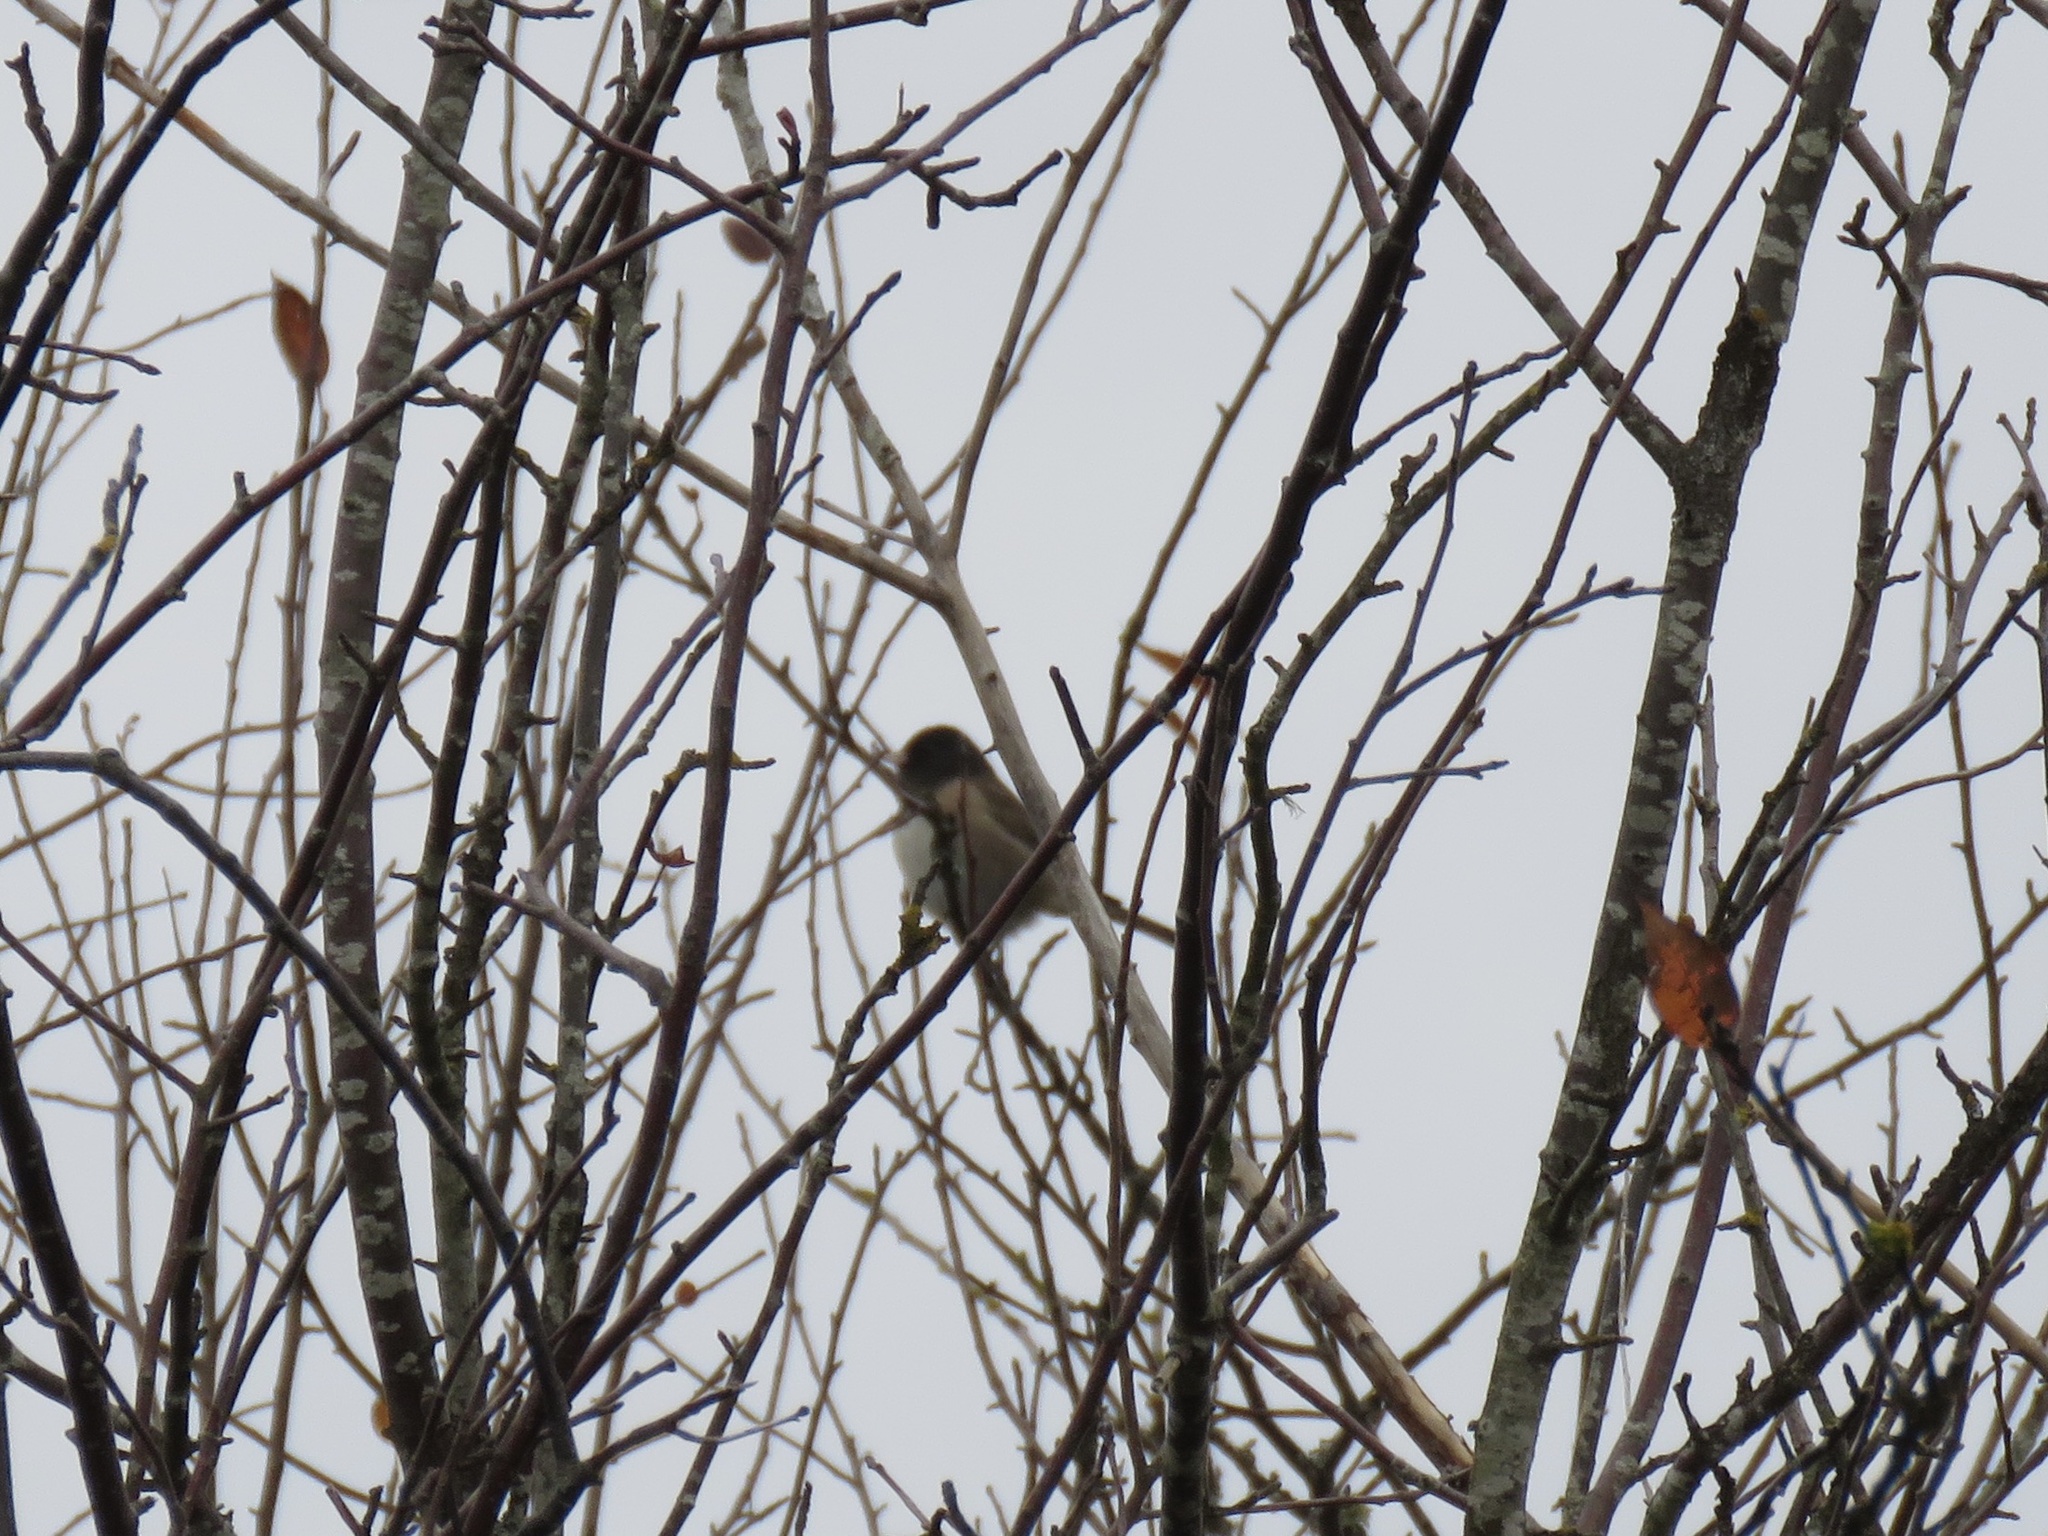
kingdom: Animalia
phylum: Chordata
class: Aves
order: Passeriformes
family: Passerellidae
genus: Junco
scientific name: Junco hyemalis
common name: Dark-eyed junco
